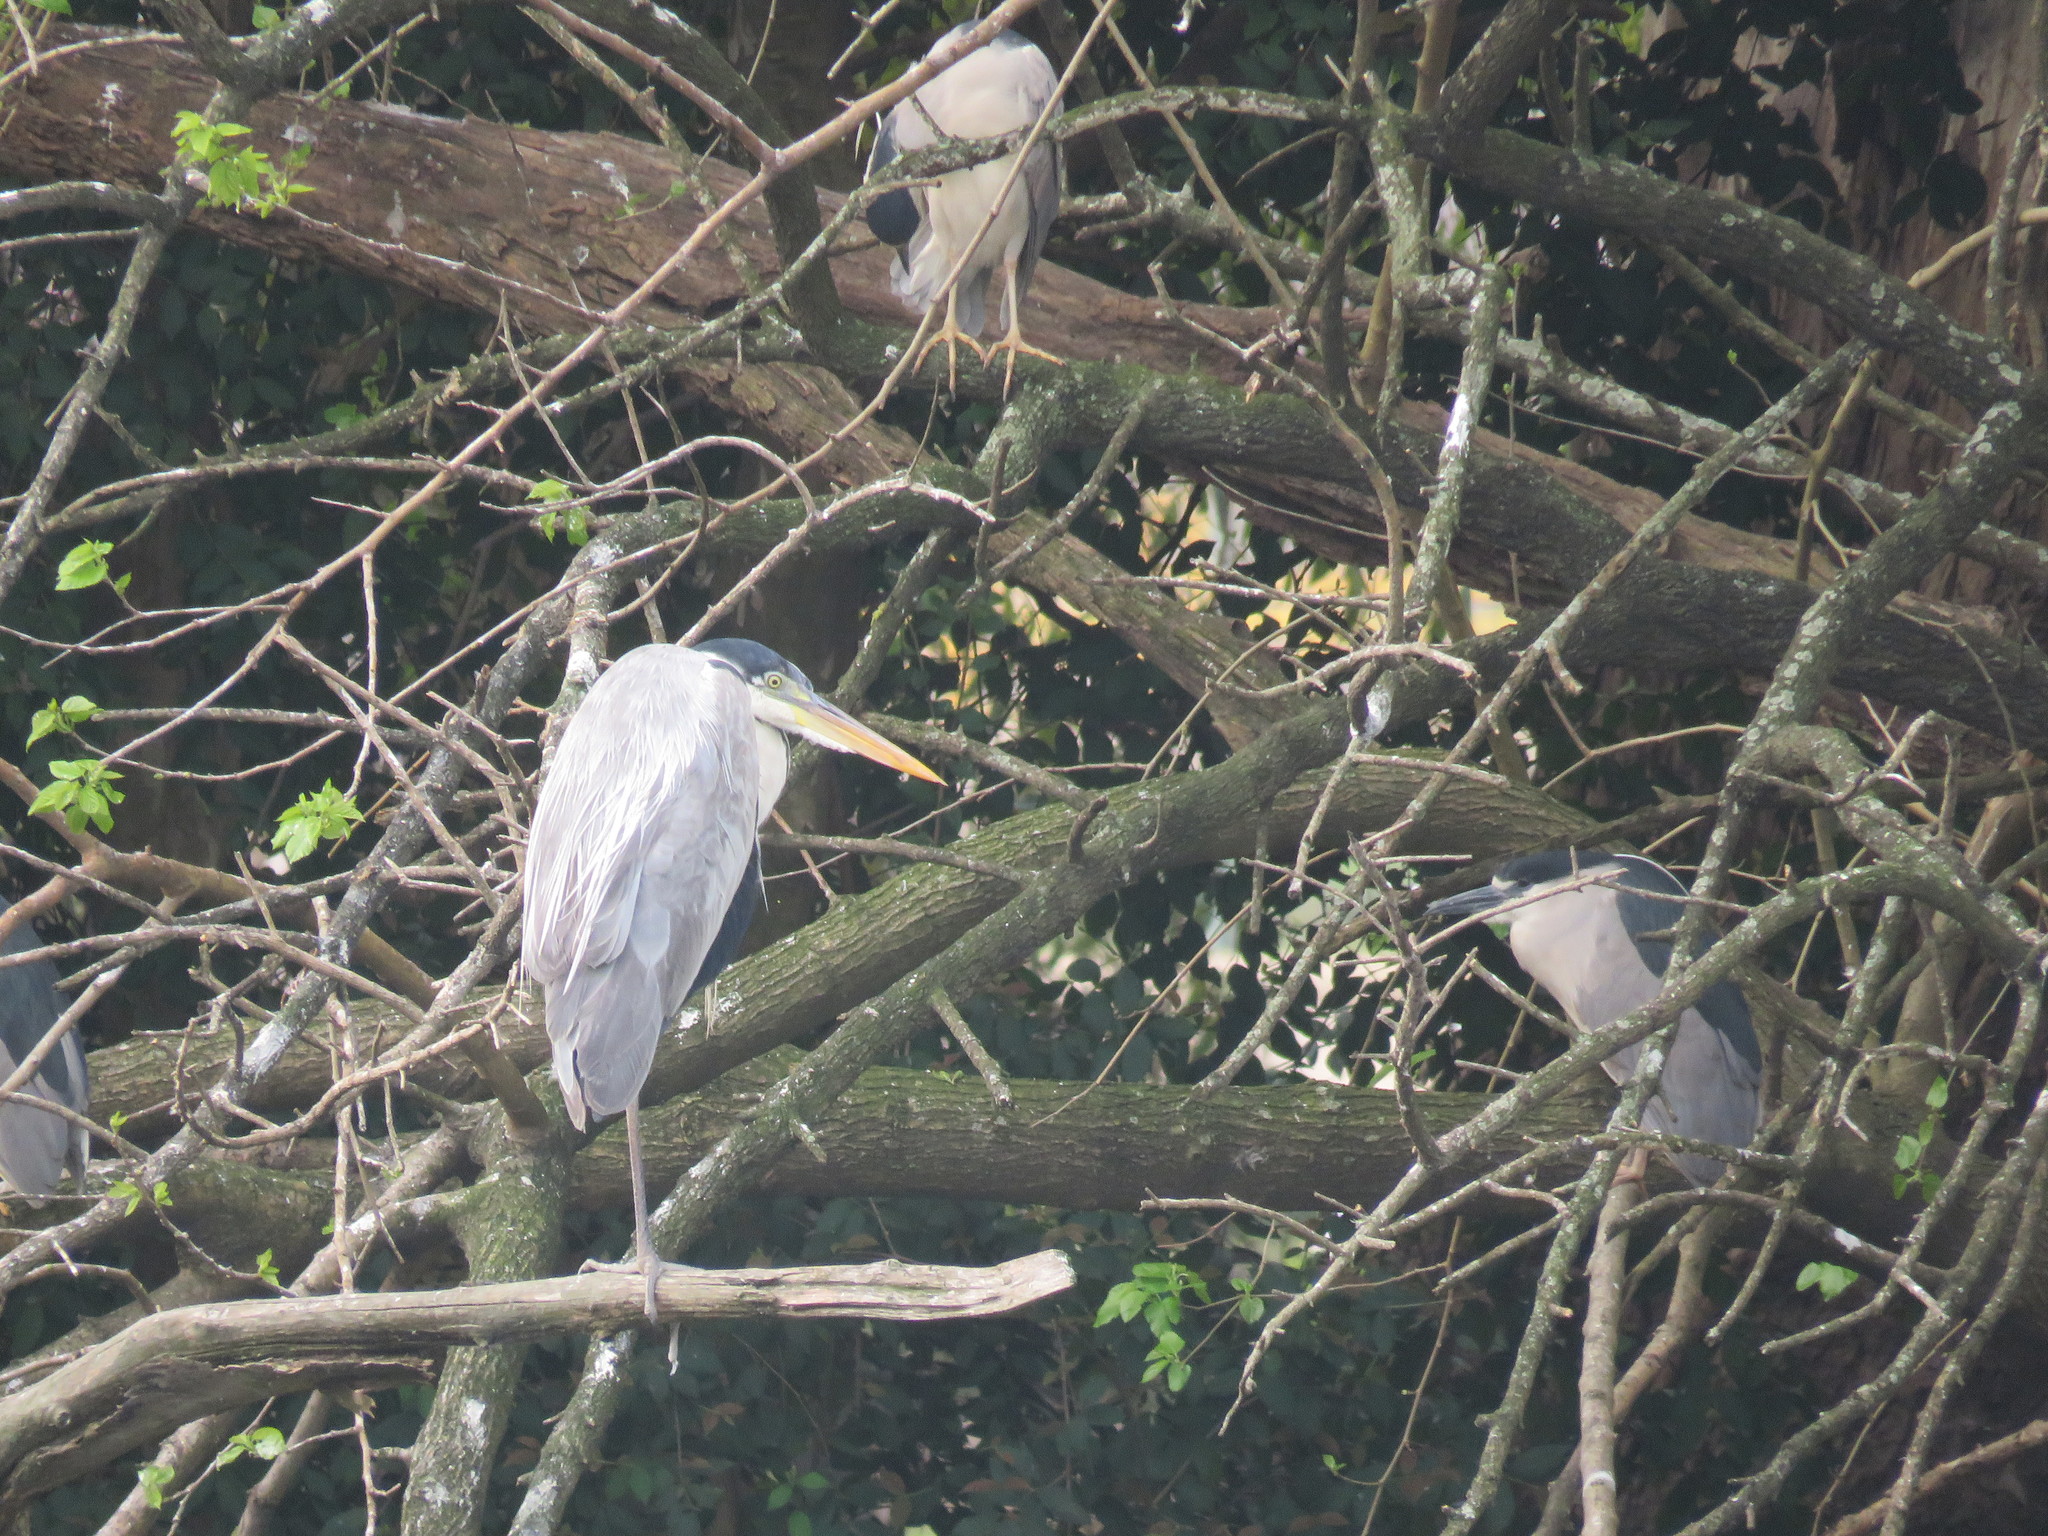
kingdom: Animalia
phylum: Chordata
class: Aves
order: Pelecaniformes
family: Ardeidae
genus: Ardea
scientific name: Ardea cocoi
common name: Cocoi heron
